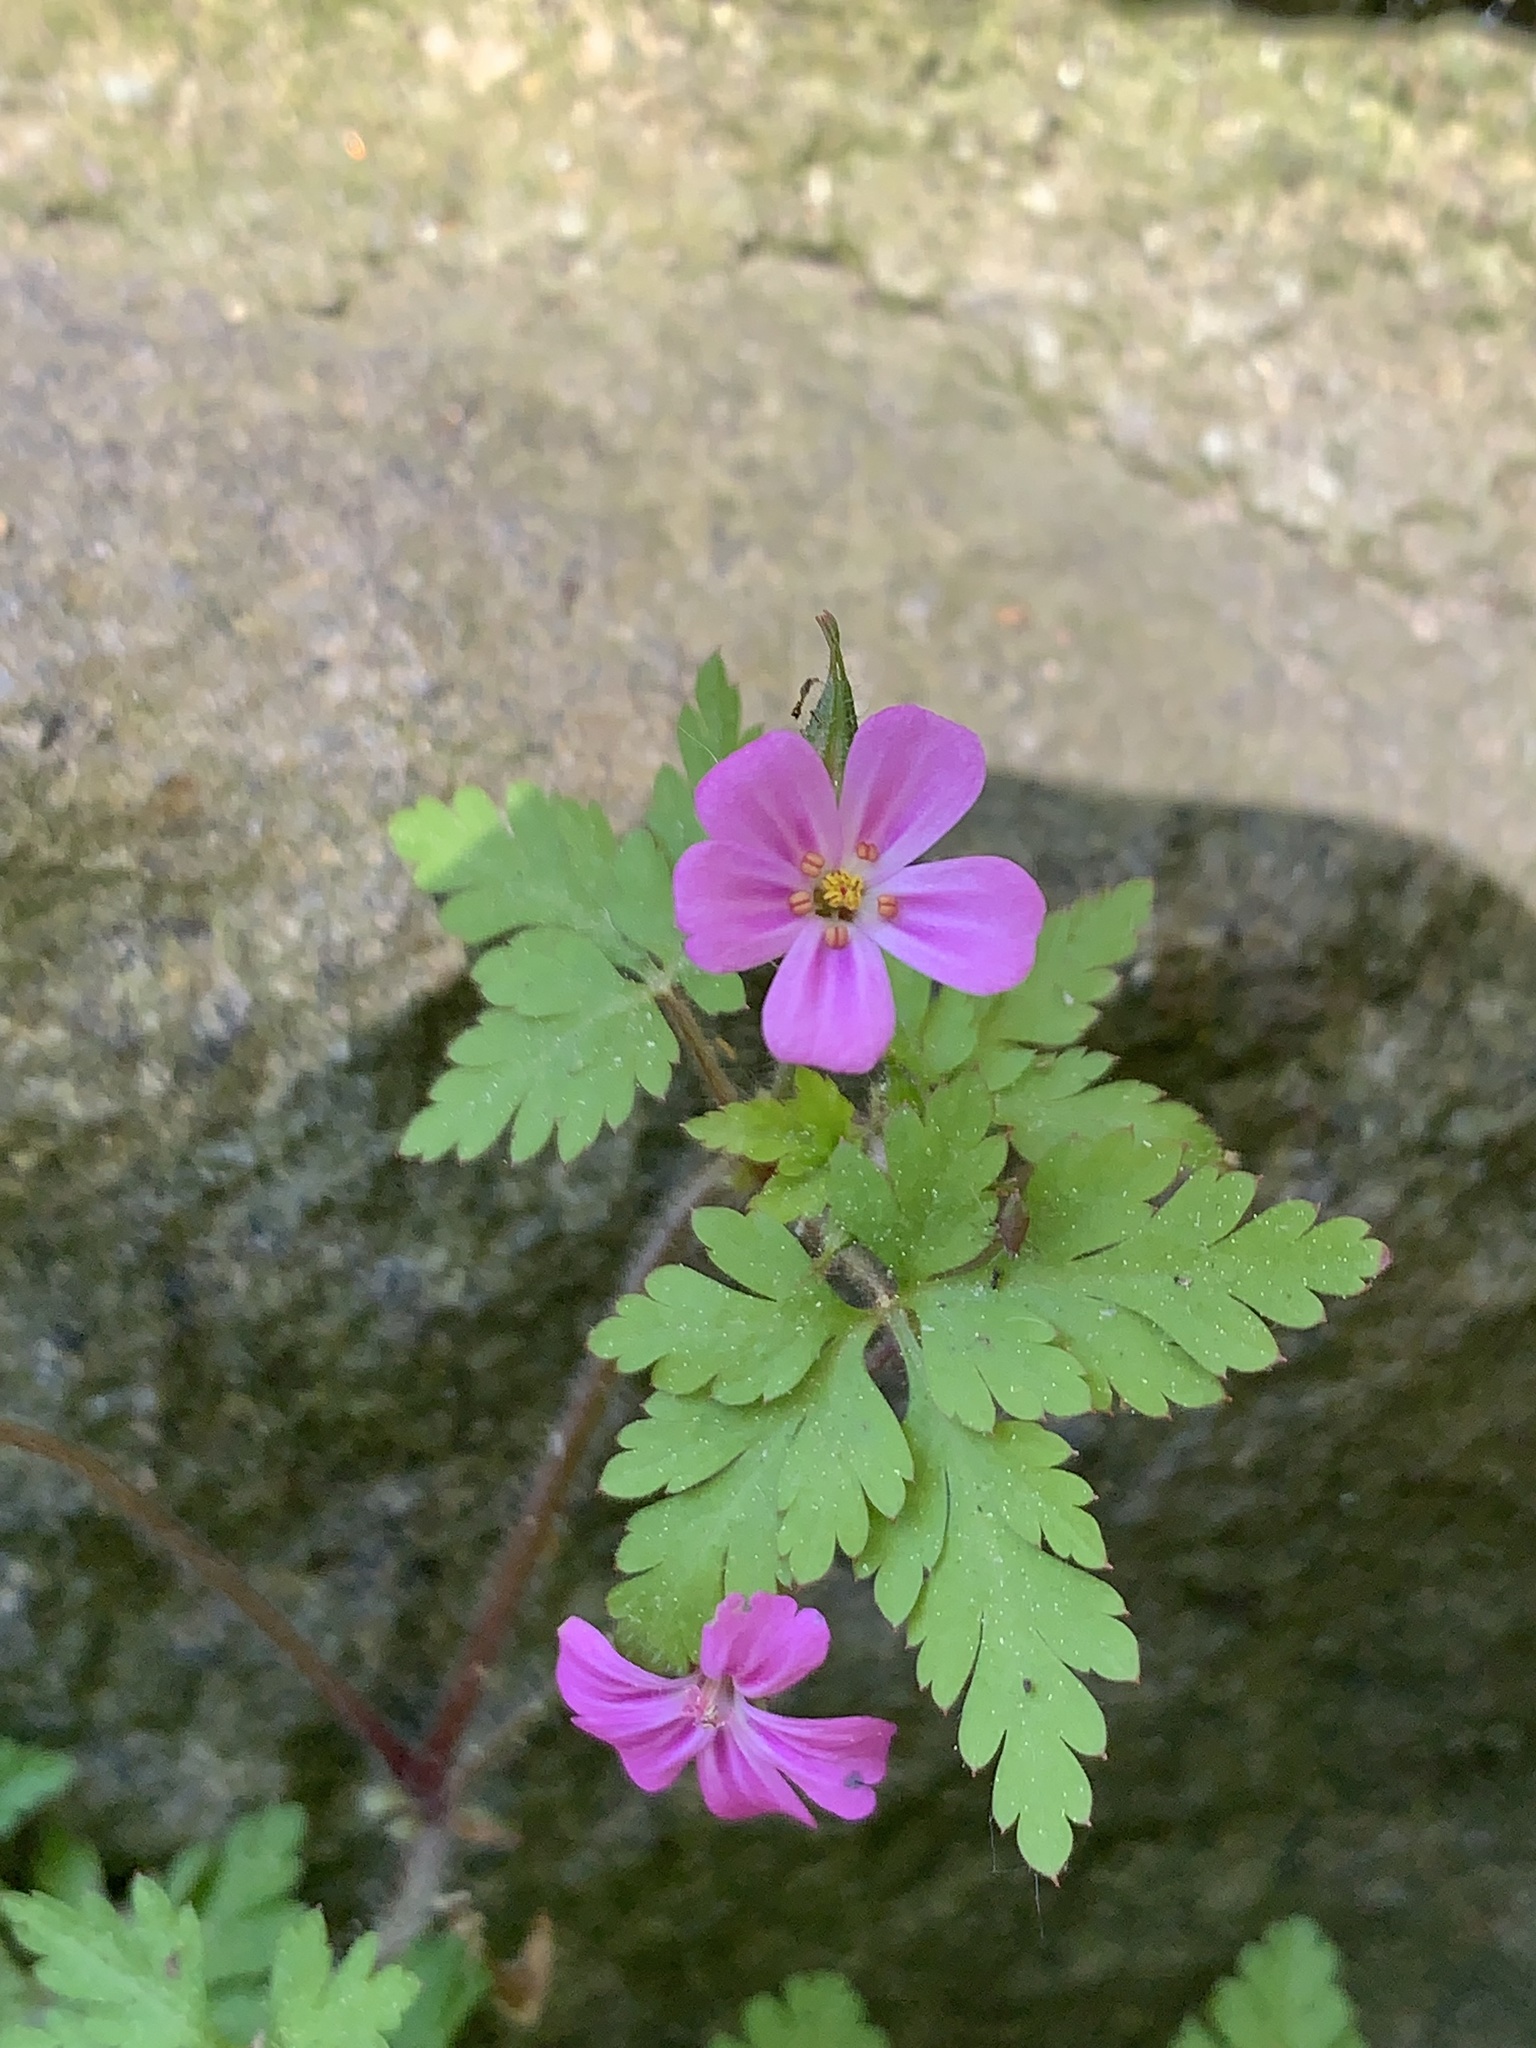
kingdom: Plantae
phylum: Tracheophyta
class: Magnoliopsida
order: Geraniales
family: Geraniaceae
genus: Geranium
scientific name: Geranium robertianum
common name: Herb-robert
